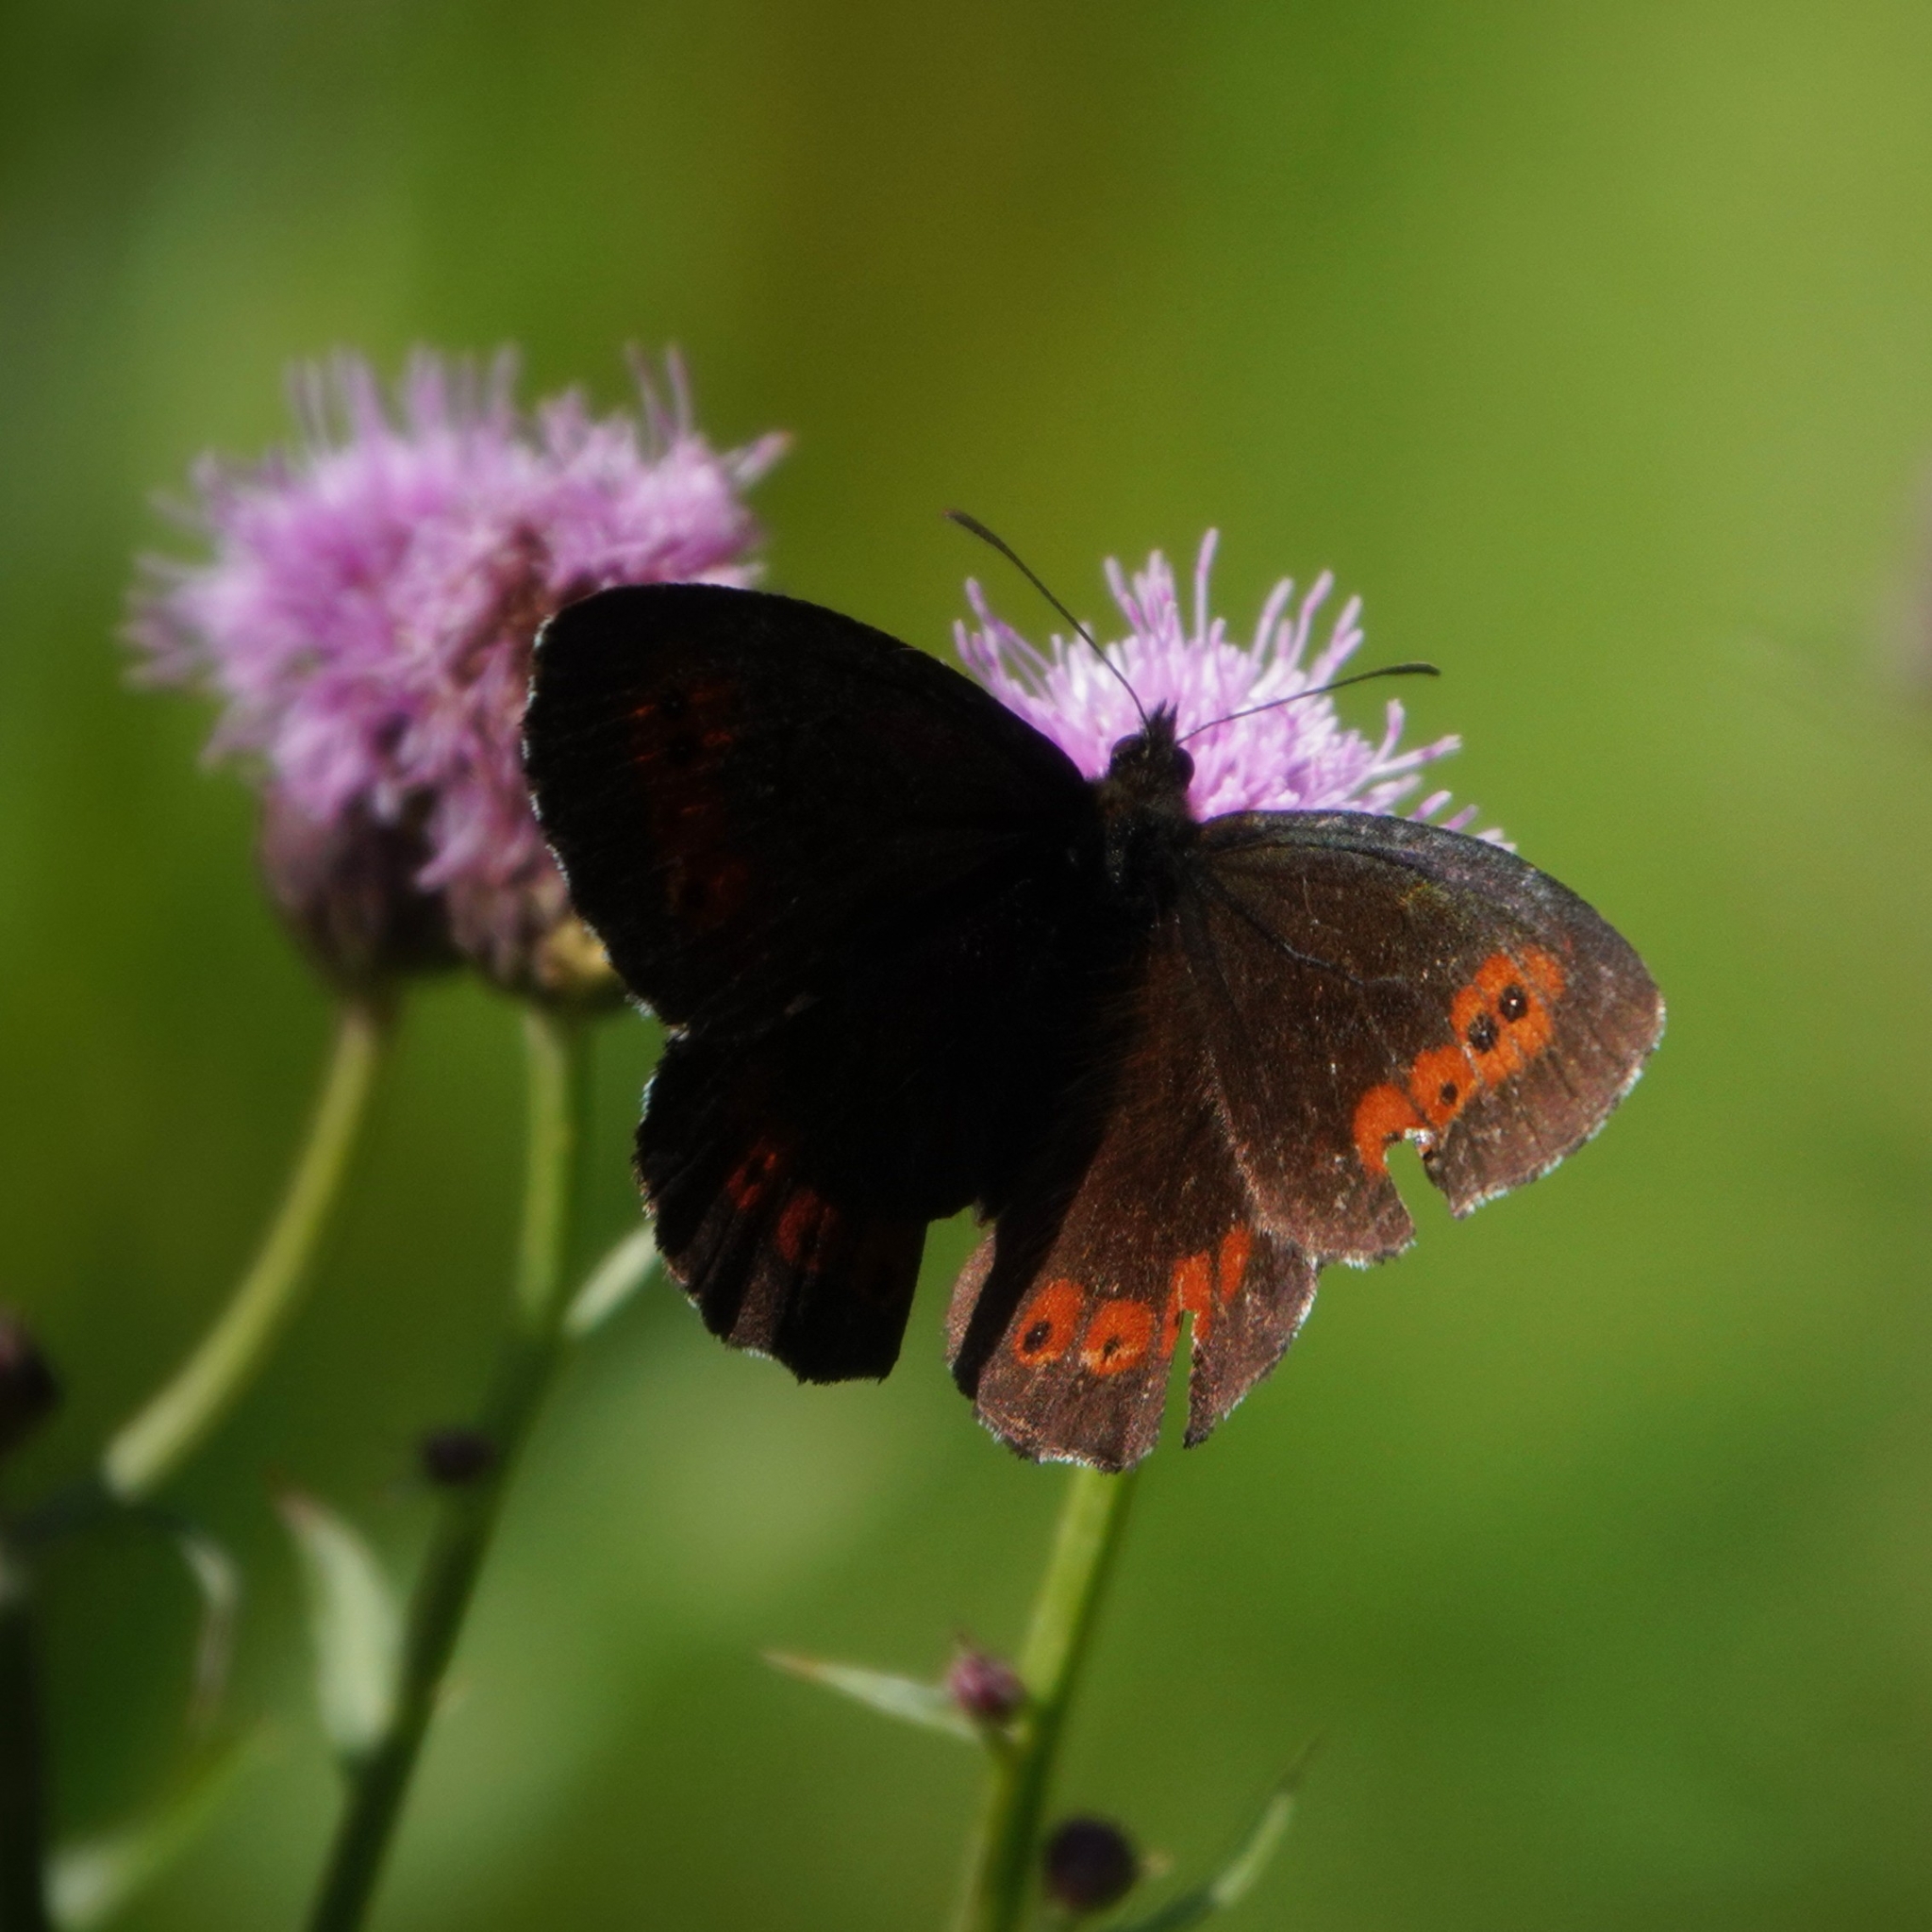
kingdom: Animalia
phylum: Arthropoda
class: Insecta
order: Lepidoptera
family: Nymphalidae
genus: Erebia
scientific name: Erebia ligea
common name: Arran brown
